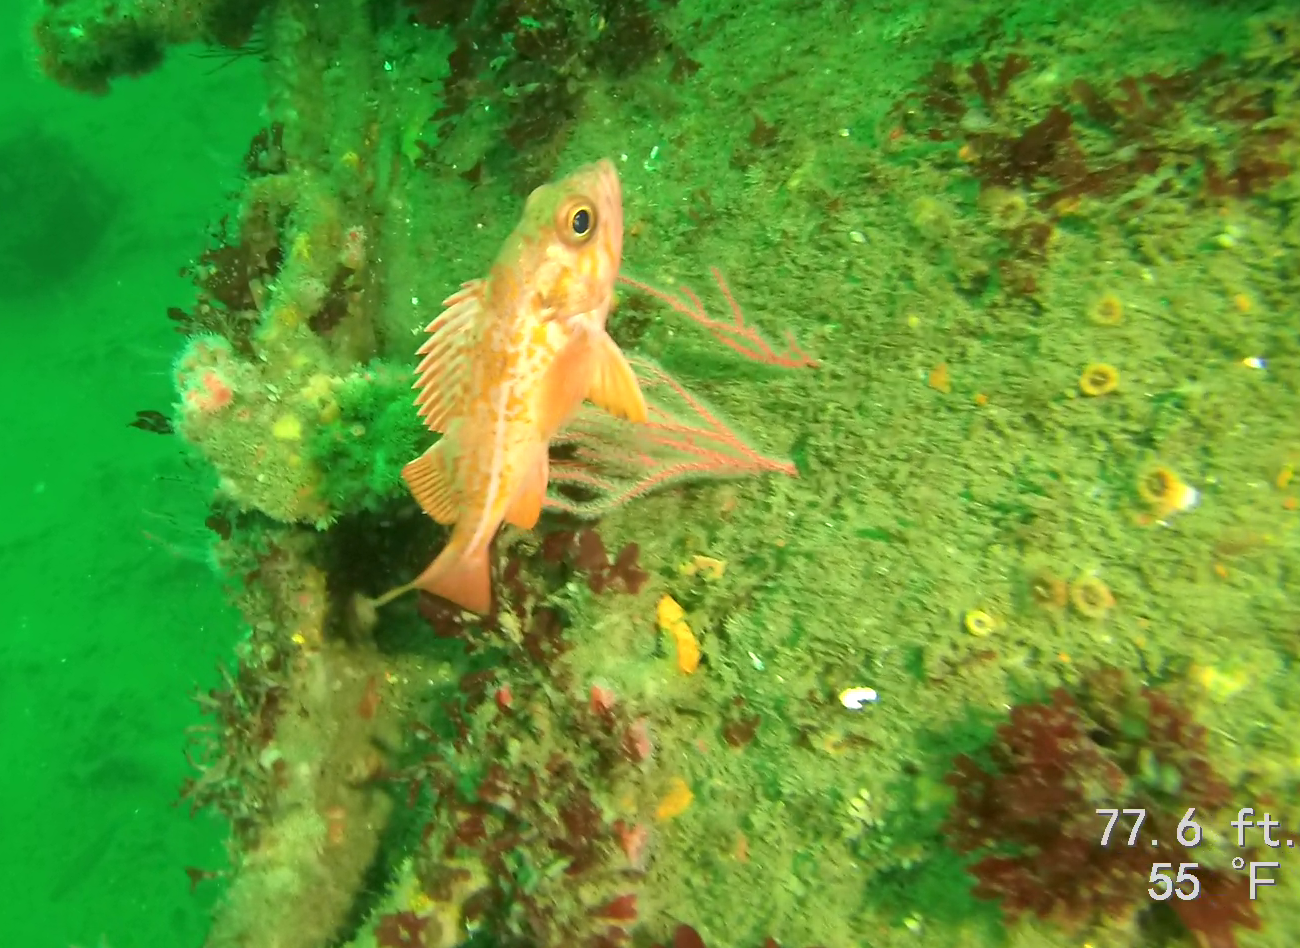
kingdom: Animalia
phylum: Chordata
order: Scorpaeniformes
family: Sebastidae
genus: Sebastes
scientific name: Sebastes miniatus
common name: Vermilion rockfish
